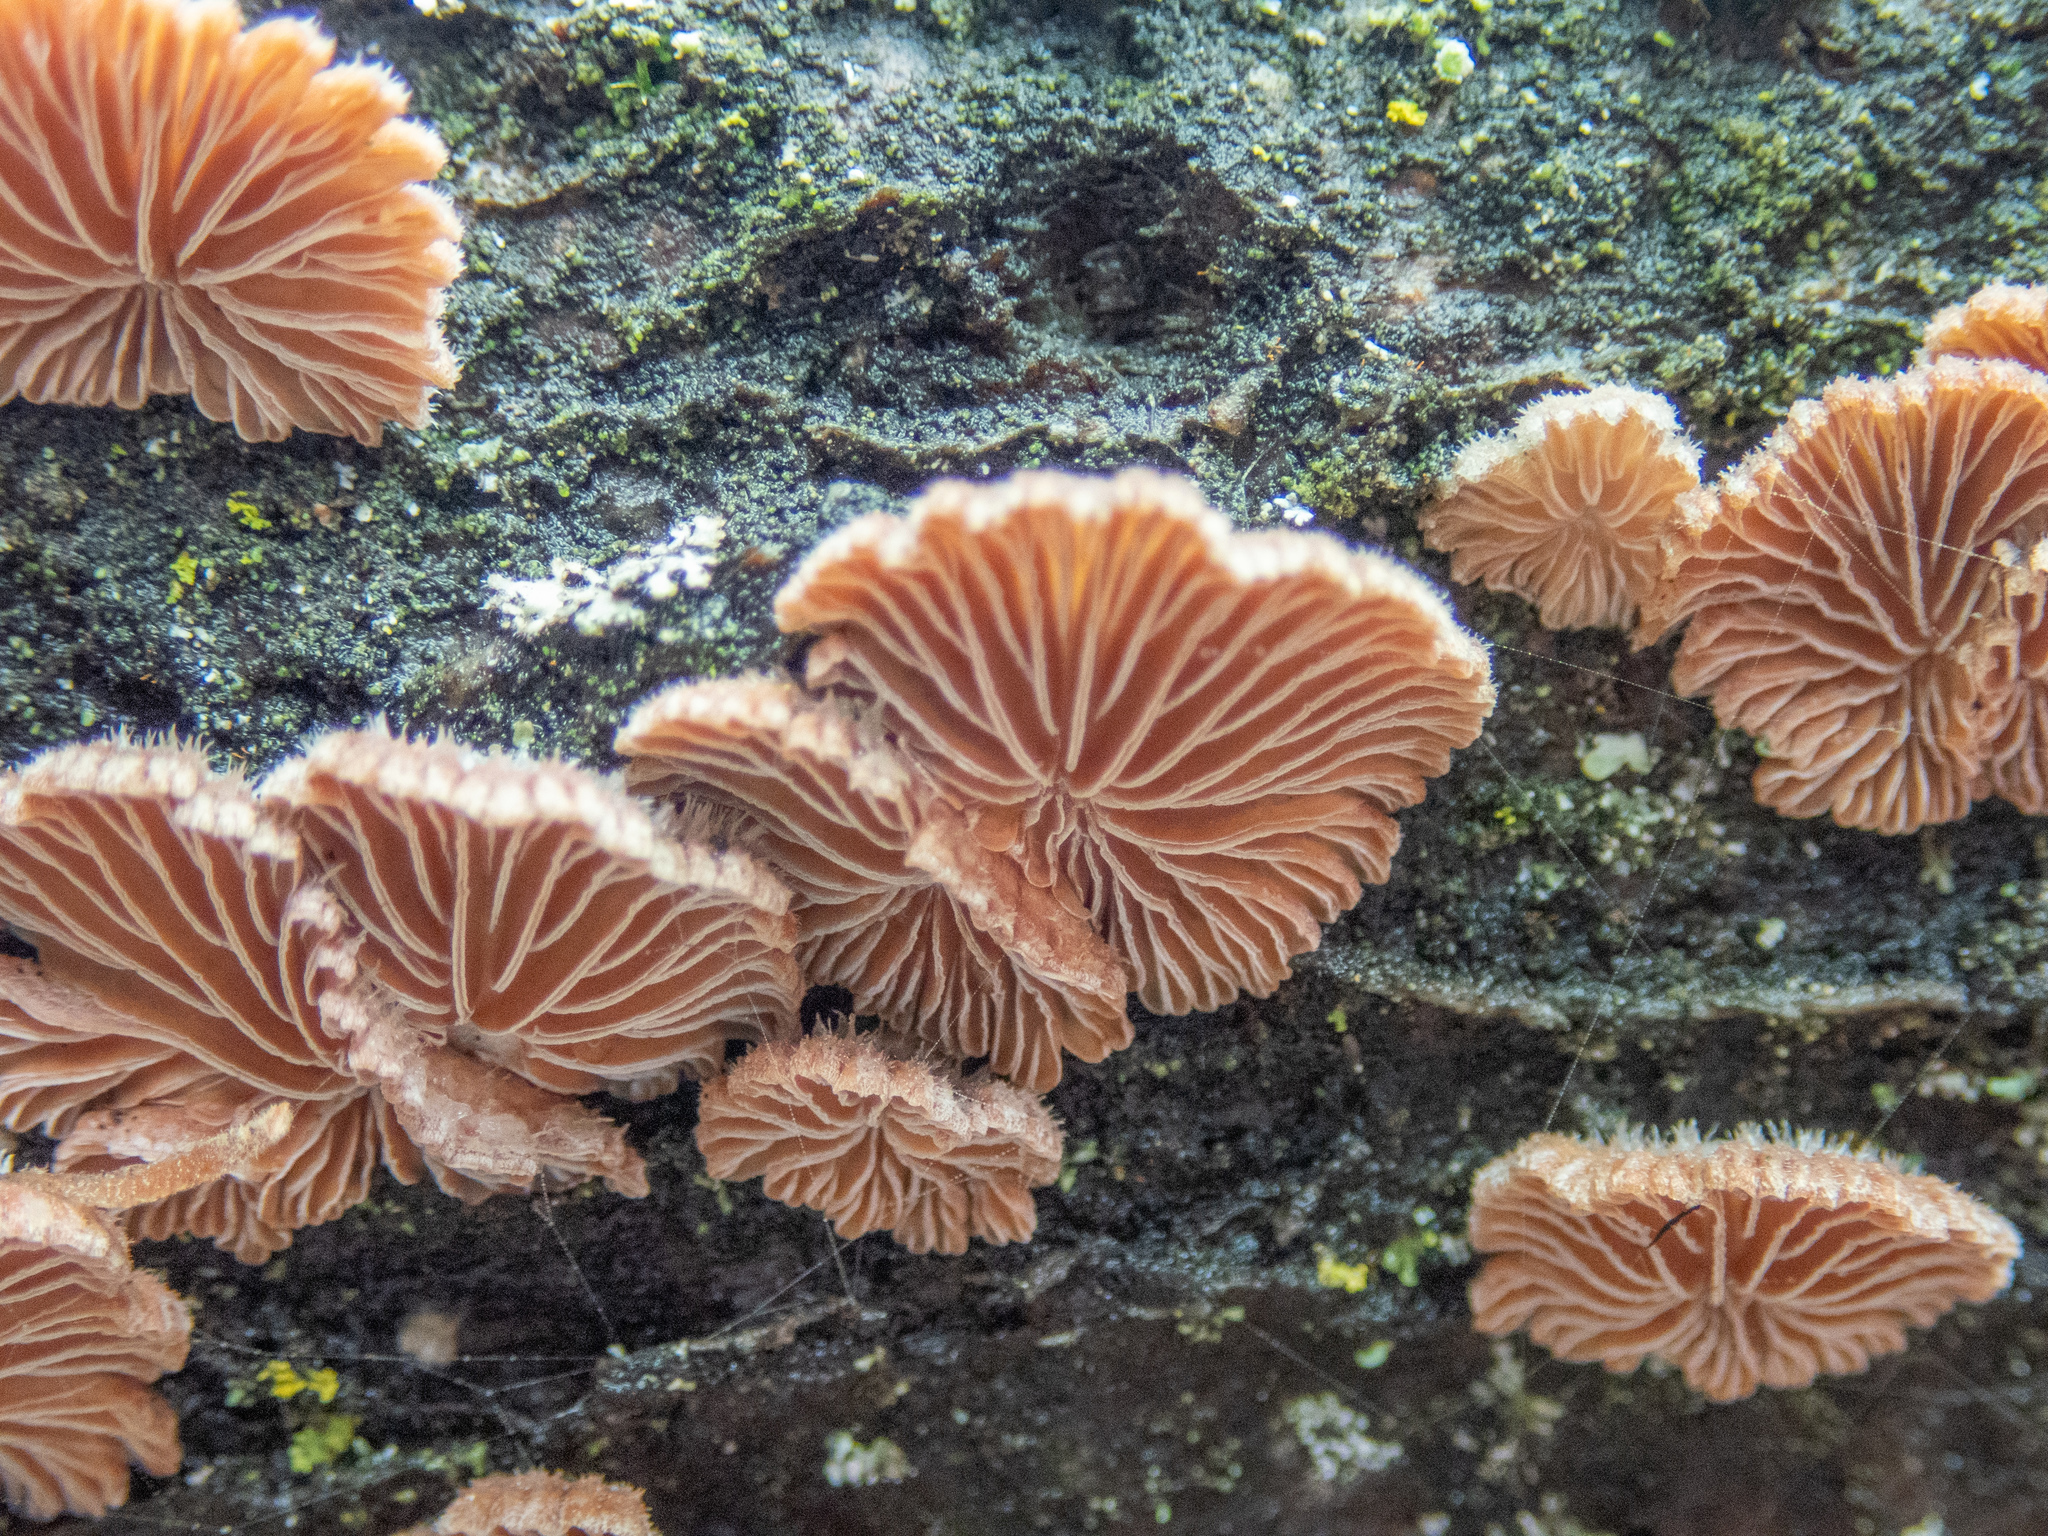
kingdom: Fungi
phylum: Basidiomycota
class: Agaricomycetes
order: Agaricales
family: Schizophyllaceae
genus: Schizophyllum
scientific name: Schizophyllum commune
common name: Common porecrust
